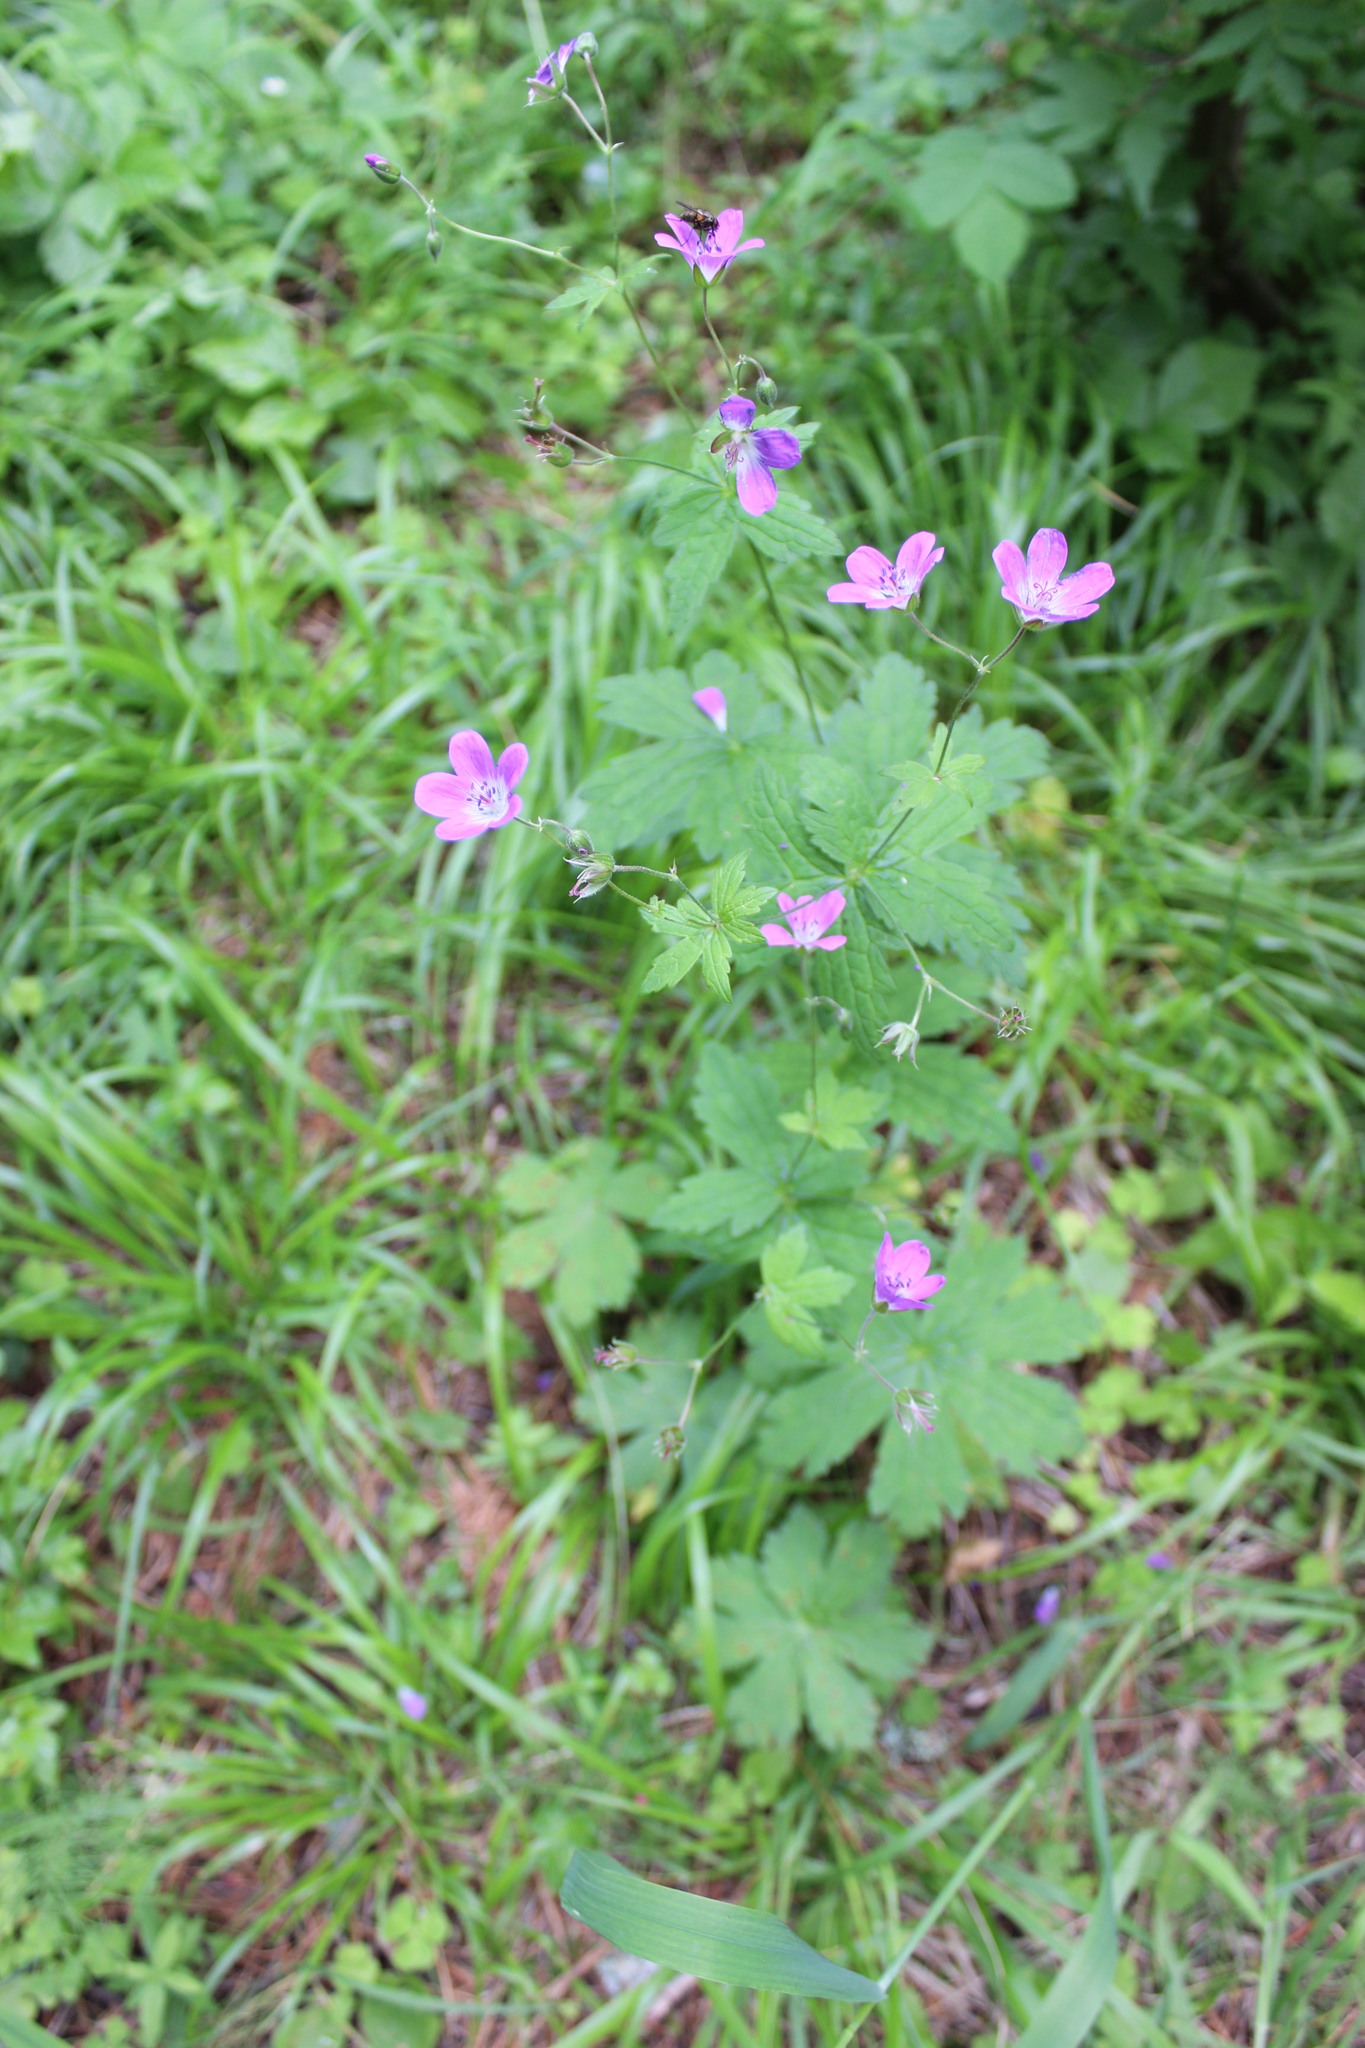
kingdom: Plantae
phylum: Tracheophyta
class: Magnoliopsida
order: Geraniales
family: Geraniaceae
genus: Geranium
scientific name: Geranium sylvaticum
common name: Wood crane's-bill
